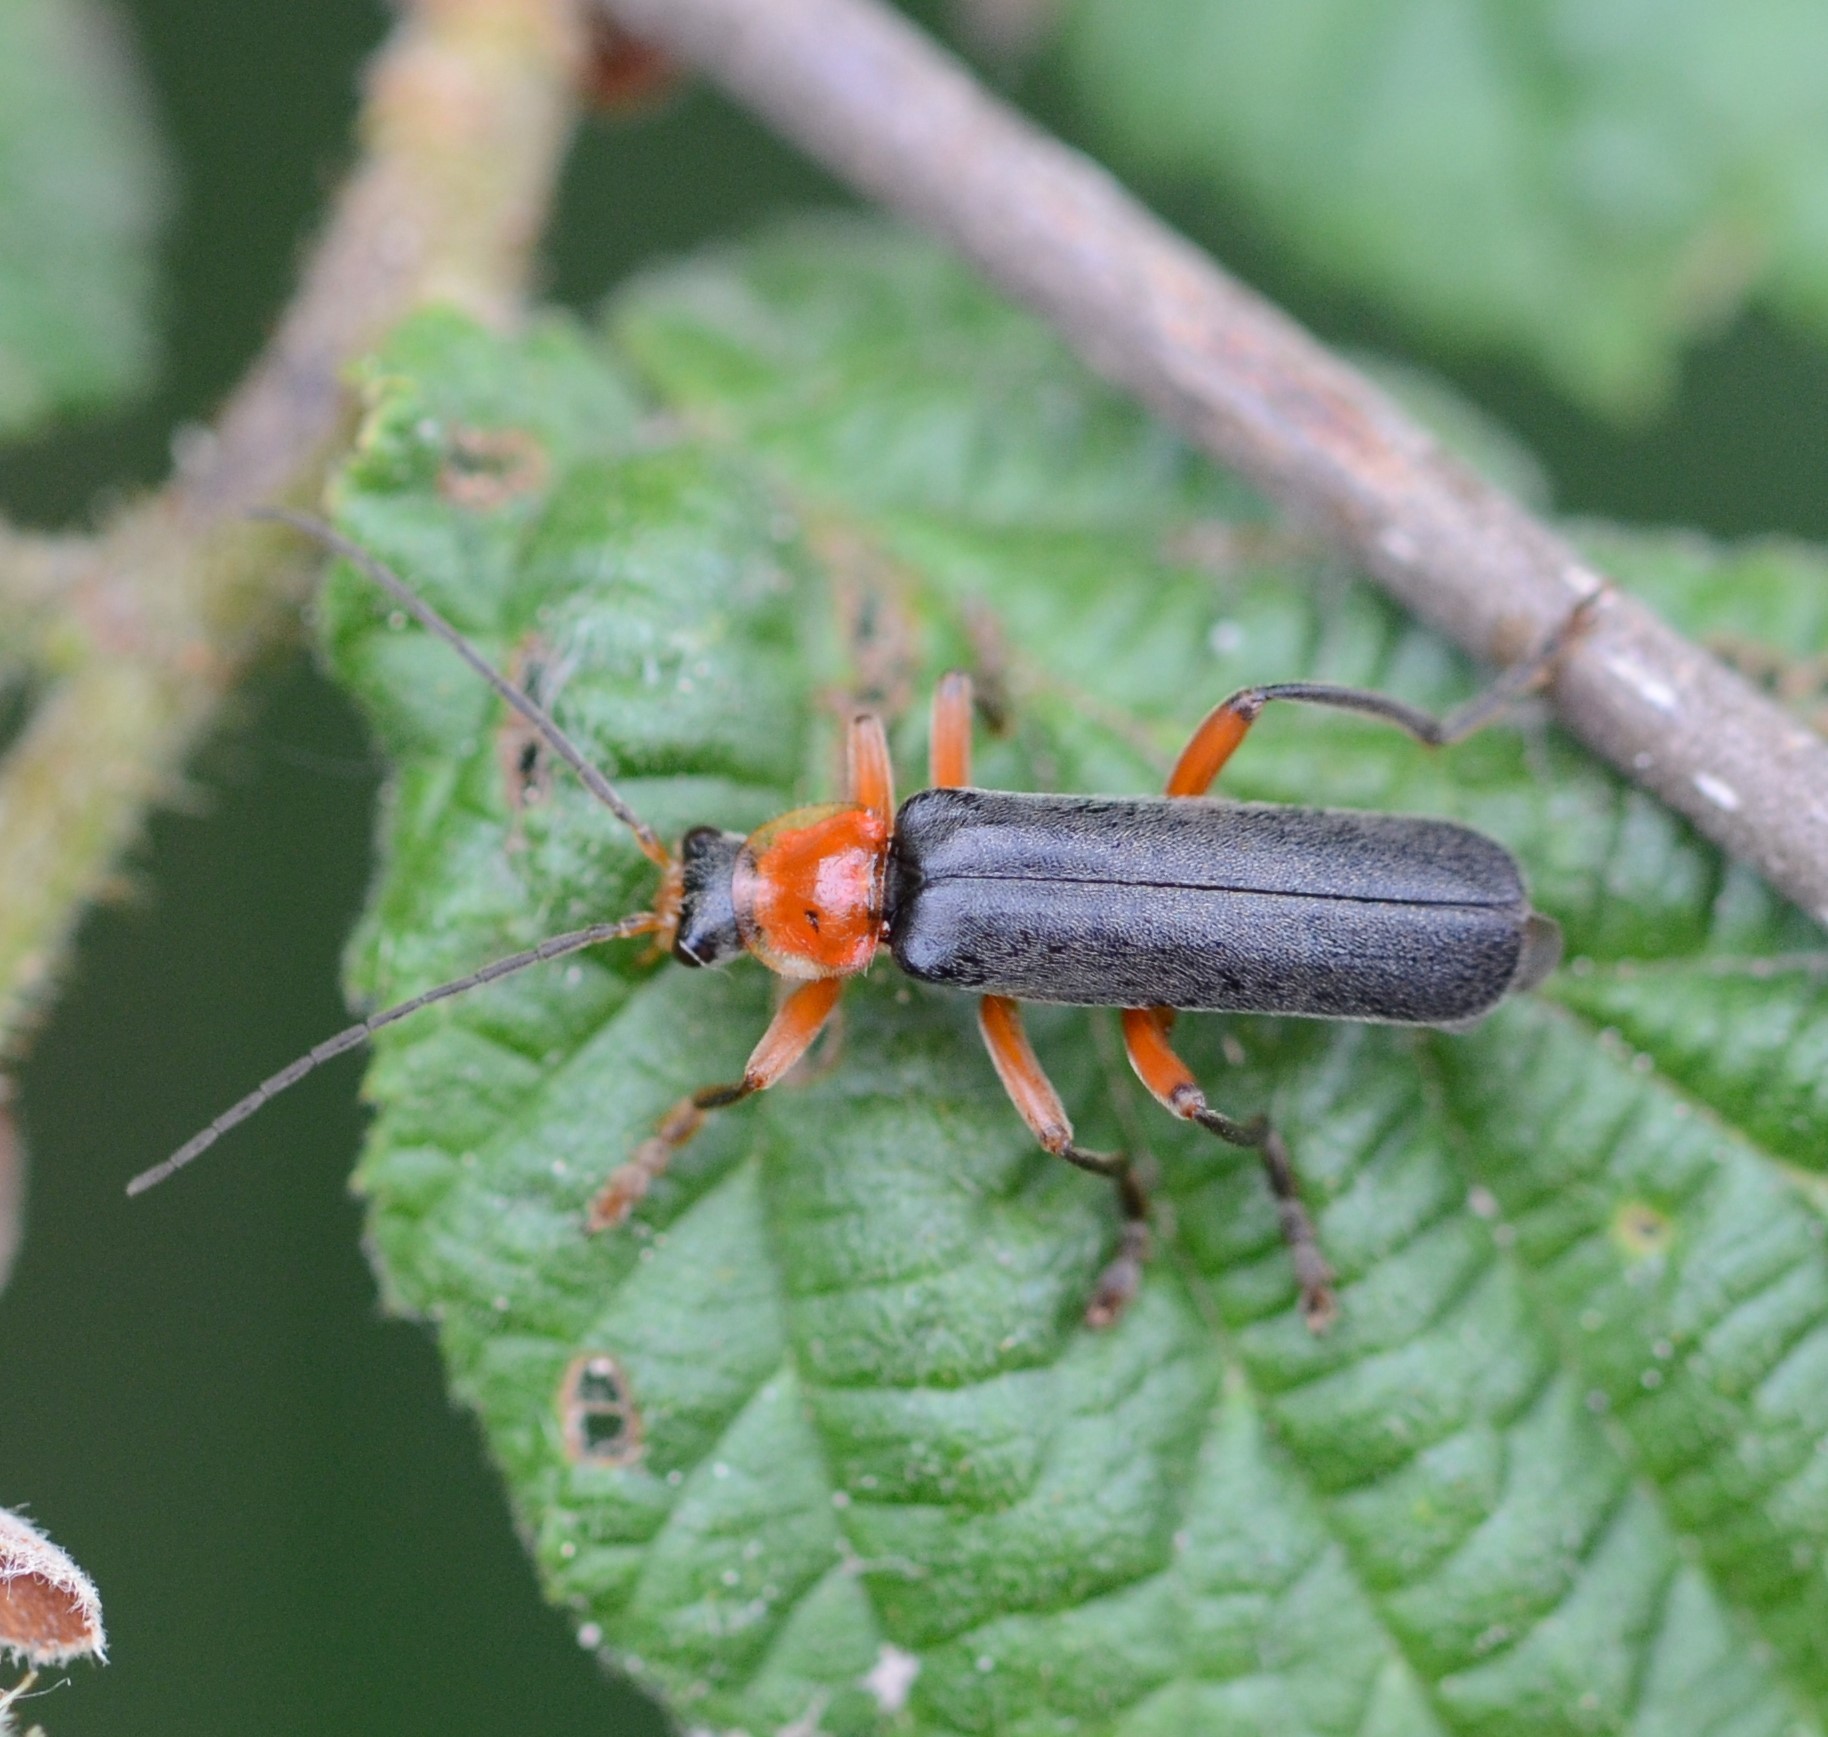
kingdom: Animalia
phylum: Arthropoda
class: Insecta
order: Coleoptera
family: Cantharidae
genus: Cantharis
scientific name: Cantharis pellucida
